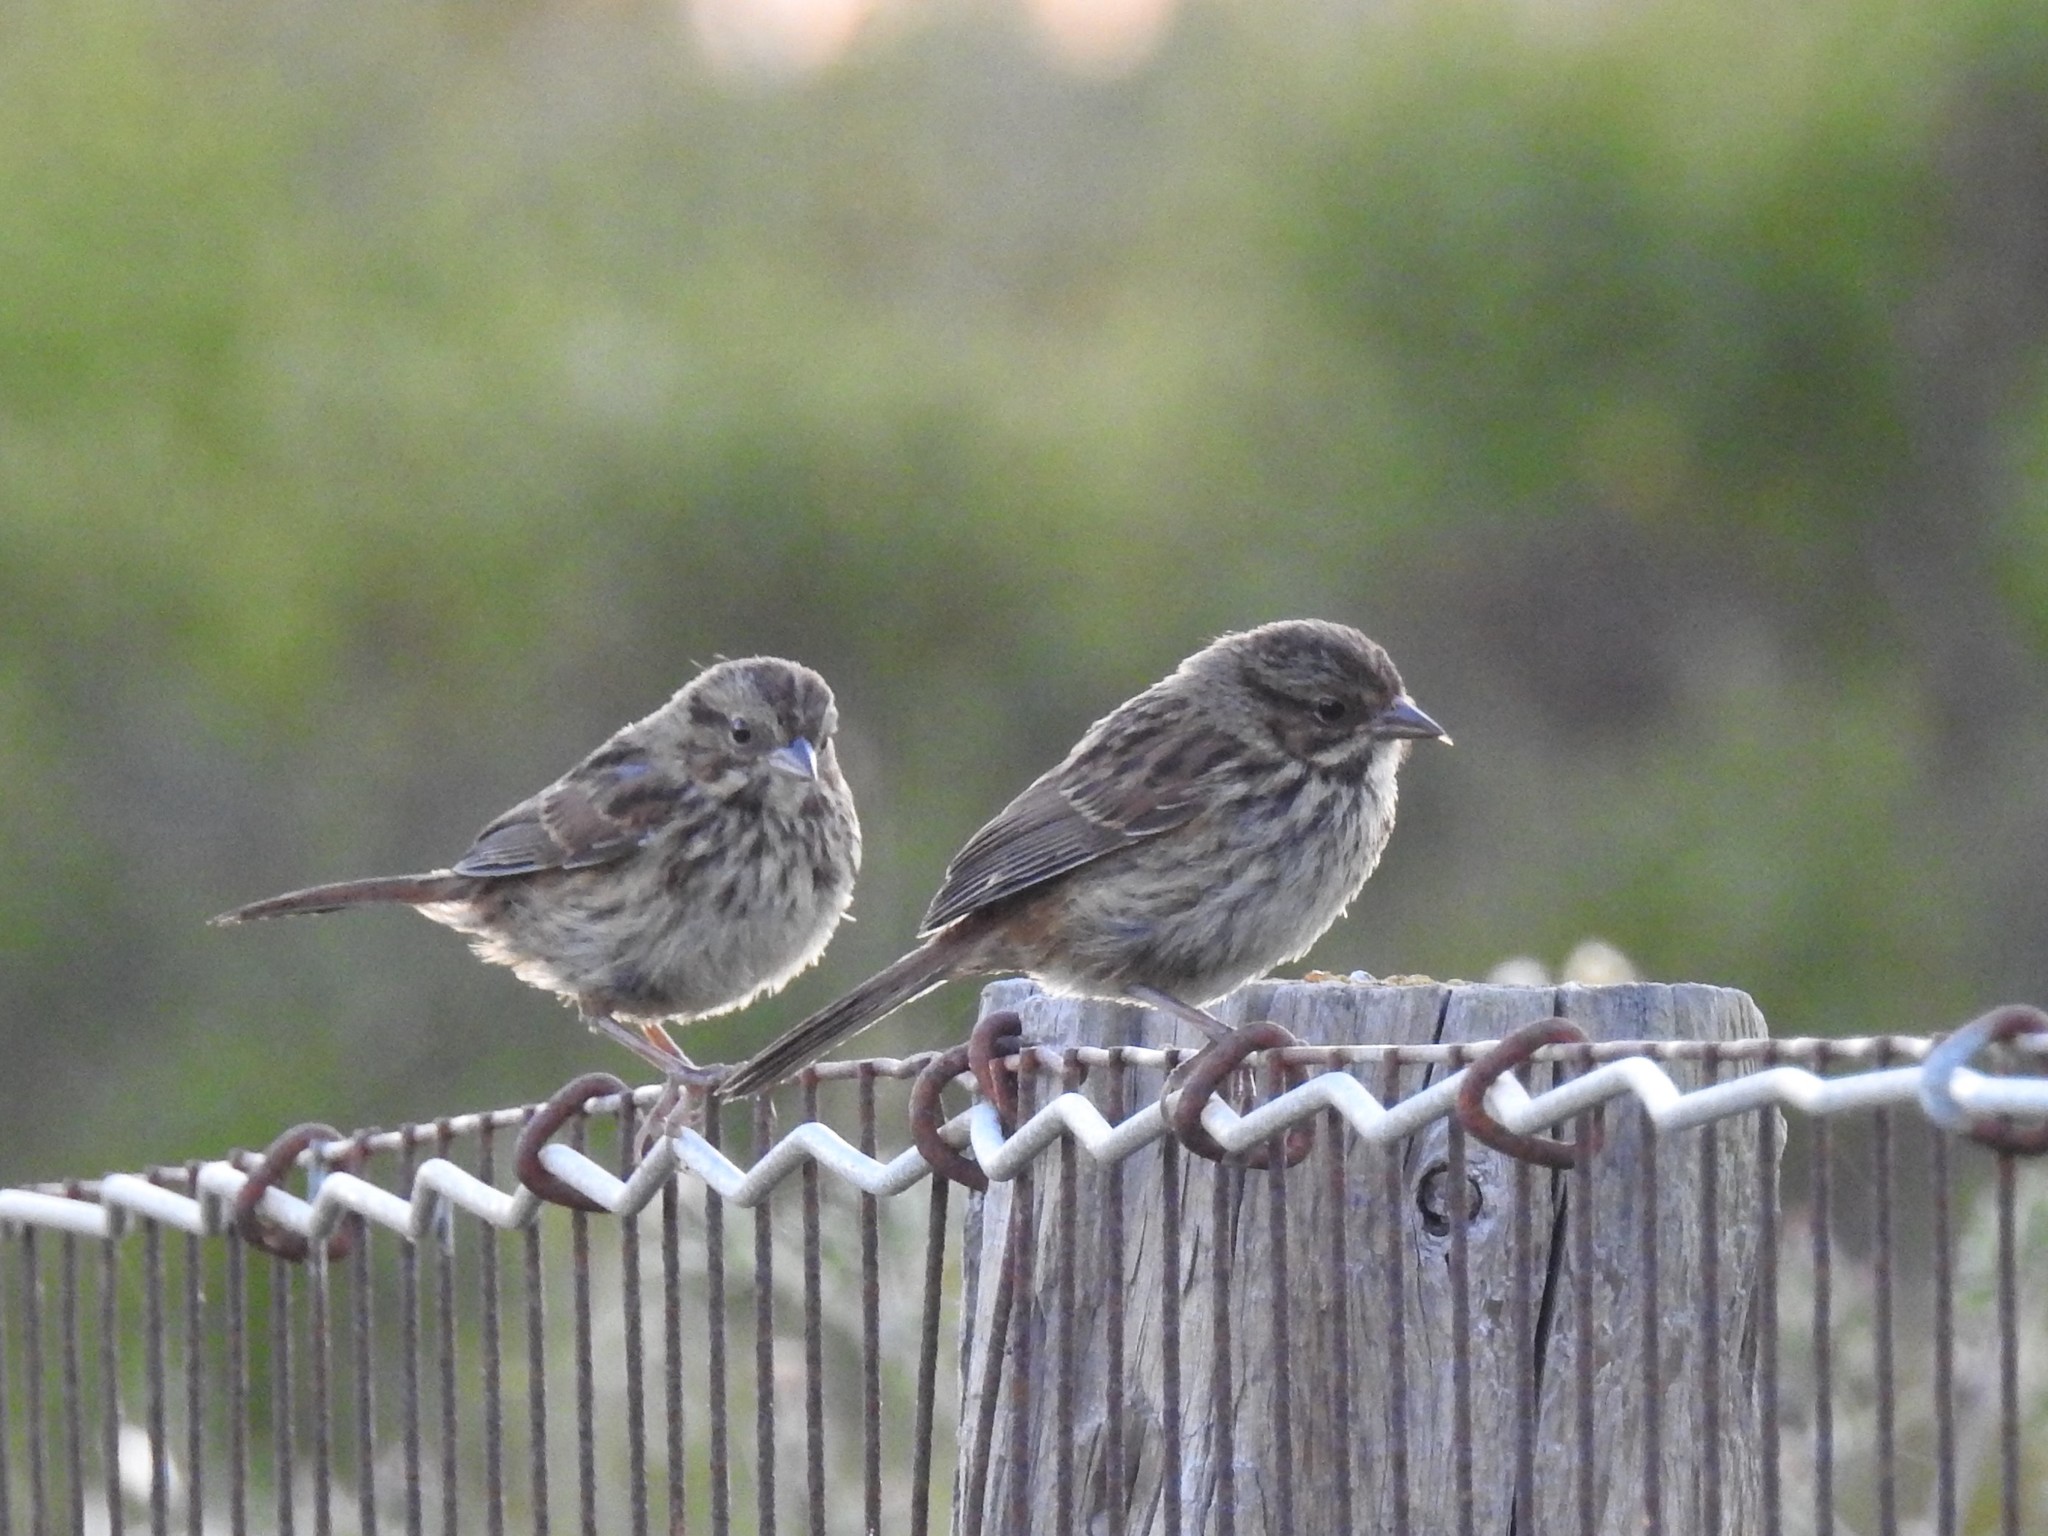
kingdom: Animalia
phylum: Chordata
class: Aves
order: Passeriformes
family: Passerellidae
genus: Melospiza
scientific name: Melospiza melodia
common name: Song sparrow
